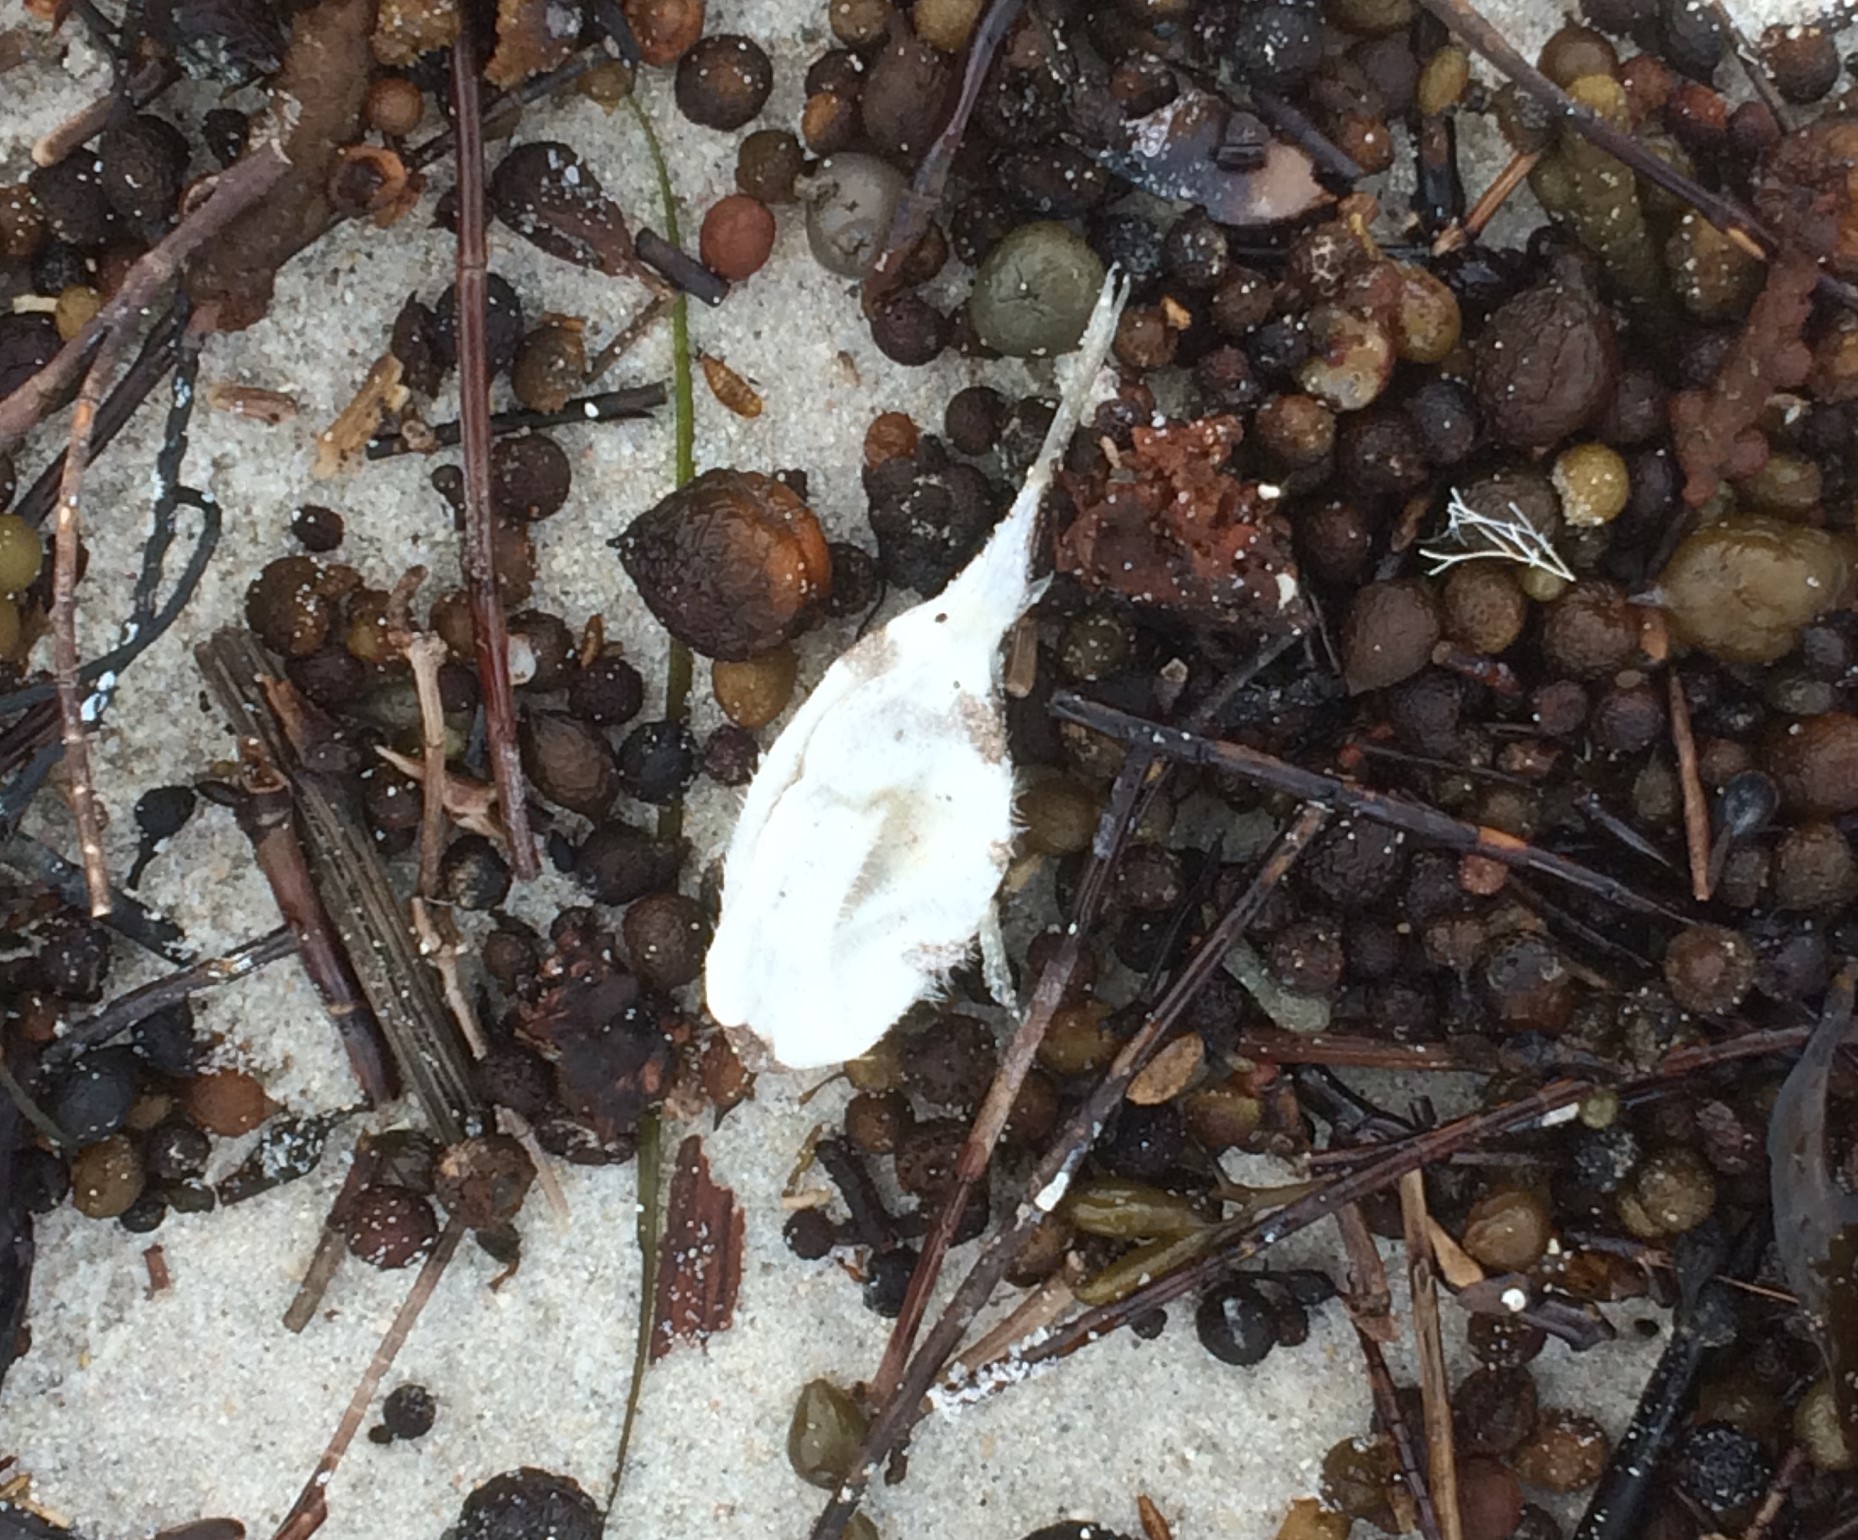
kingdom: Animalia
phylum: Chordata
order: Tetraodontiformes
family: Tetraodontidae
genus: Polyspina
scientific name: Polyspina piosae
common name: Orange-barred pufferfish
